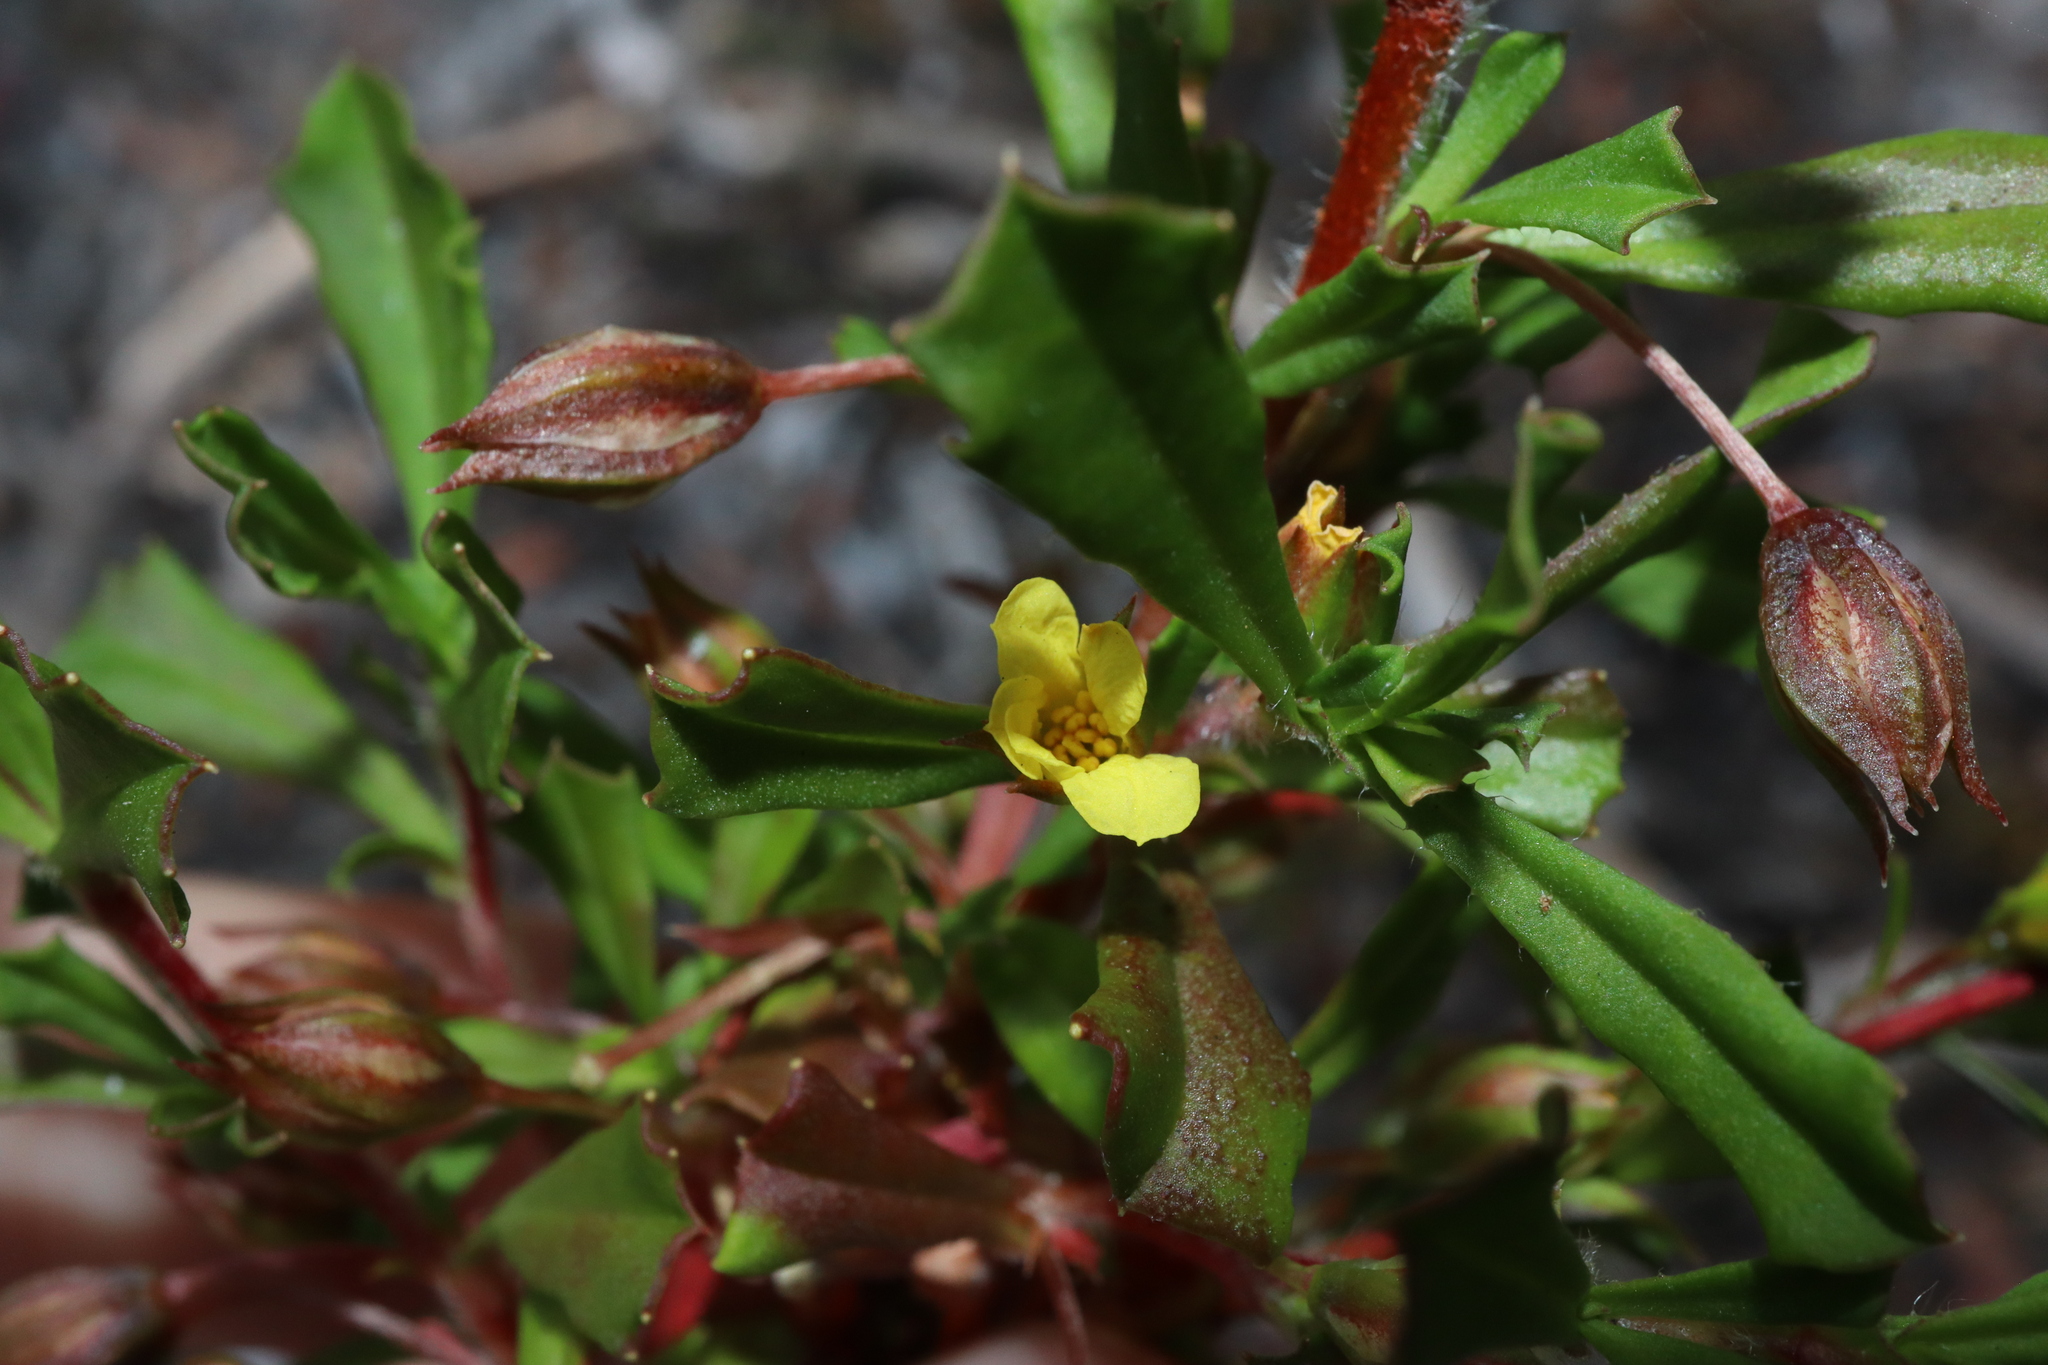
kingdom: Plantae
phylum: Tracheophyta
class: Magnoliopsida
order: Dilleniales
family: Dilleniaceae
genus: Hibbertia
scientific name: Hibbertia racemosa
